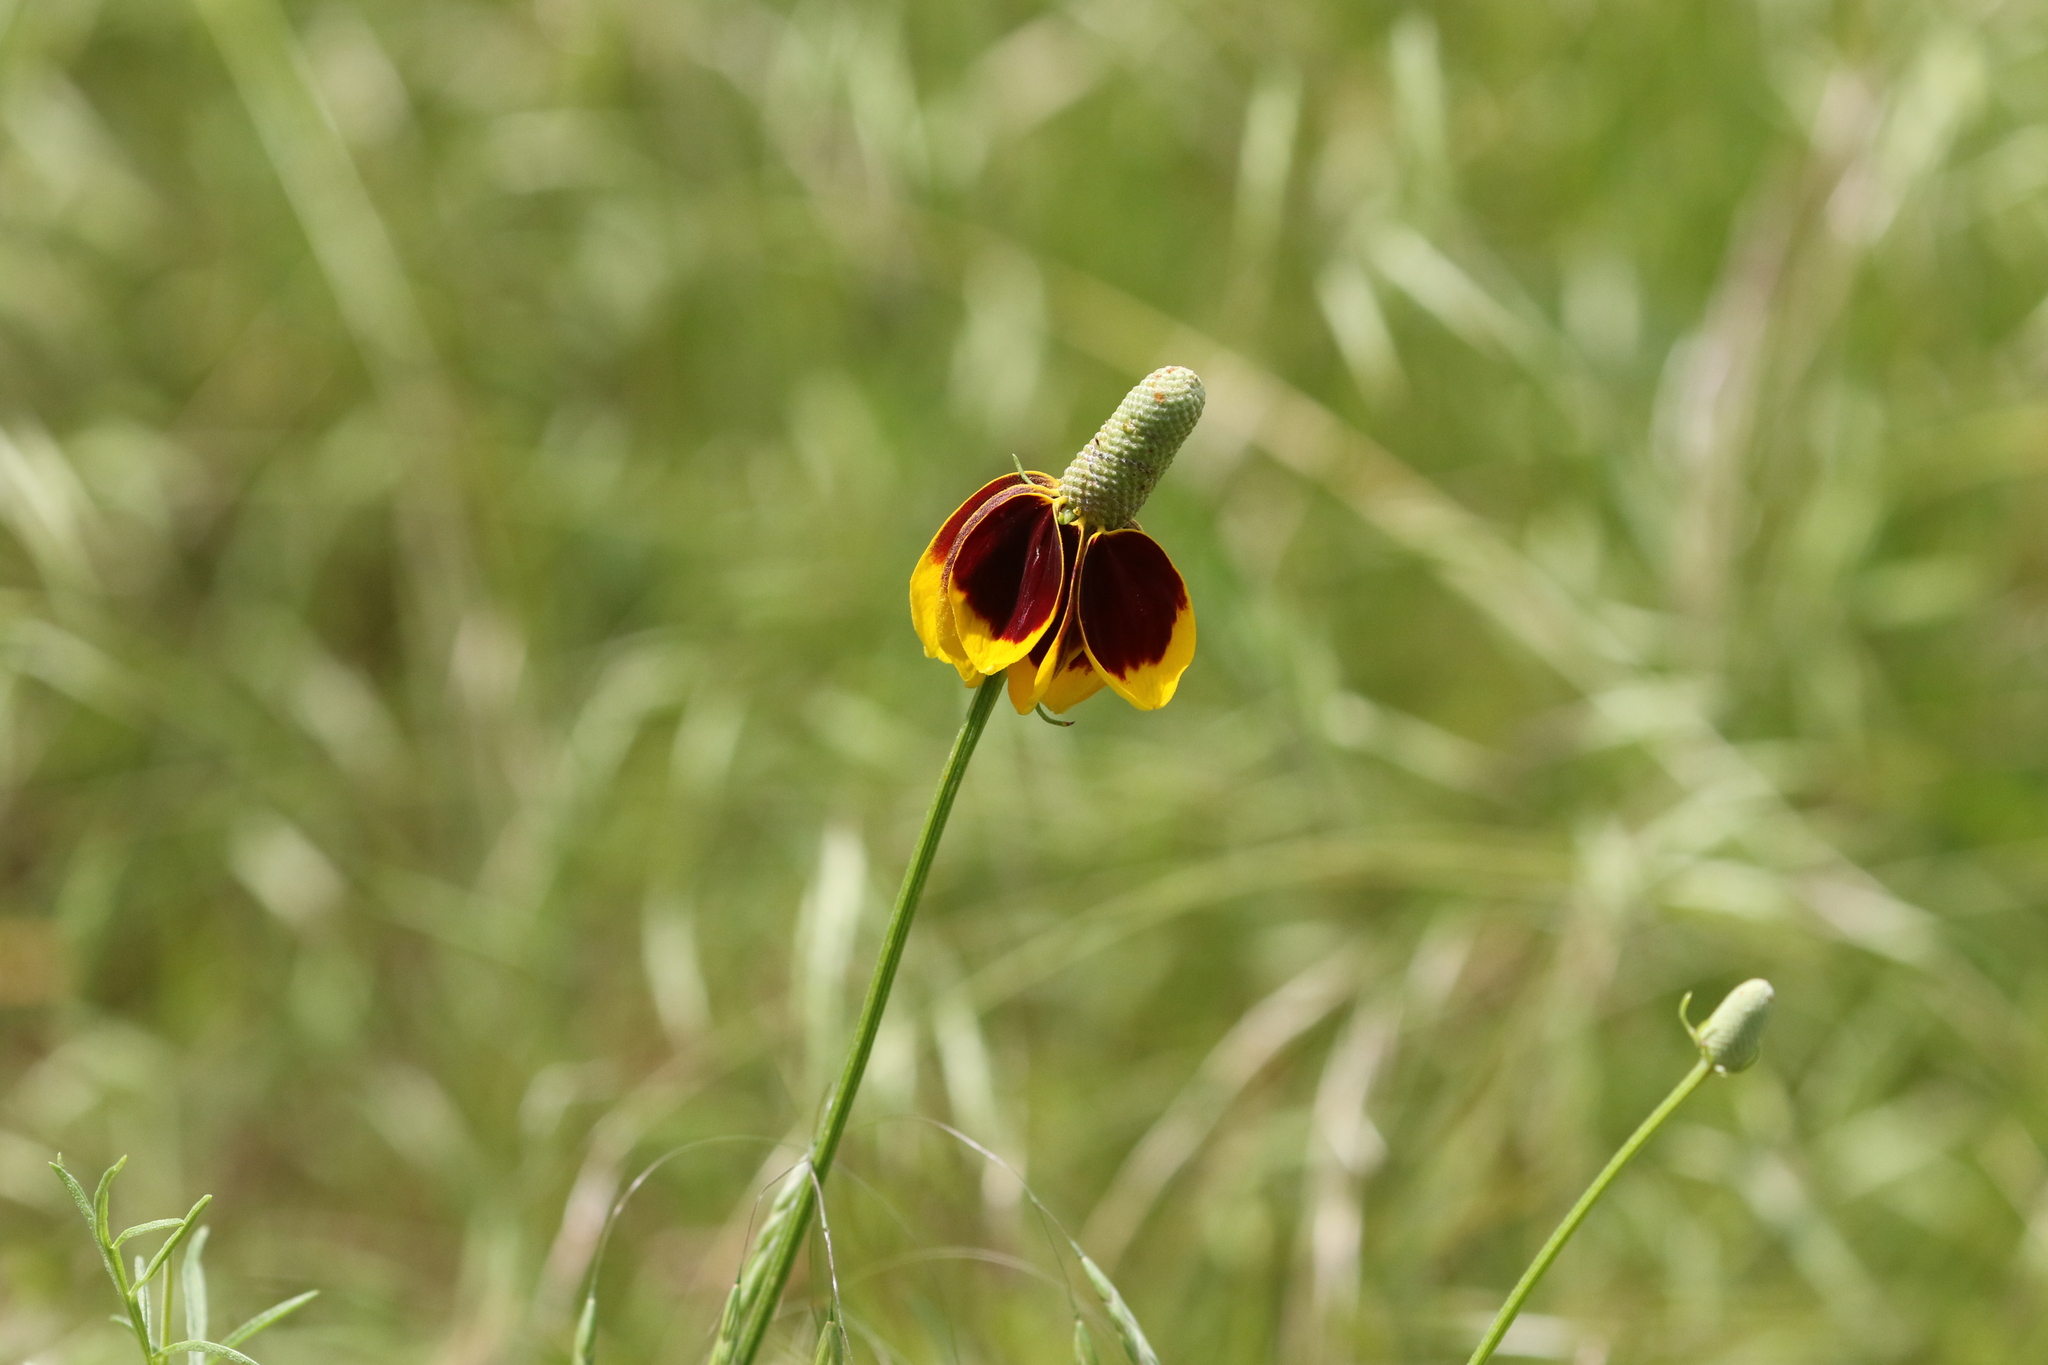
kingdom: Plantae
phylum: Tracheophyta
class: Magnoliopsida
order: Asterales
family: Asteraceae
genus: Ratibida
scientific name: Ratibida columnifera
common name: Prairie coneflower
